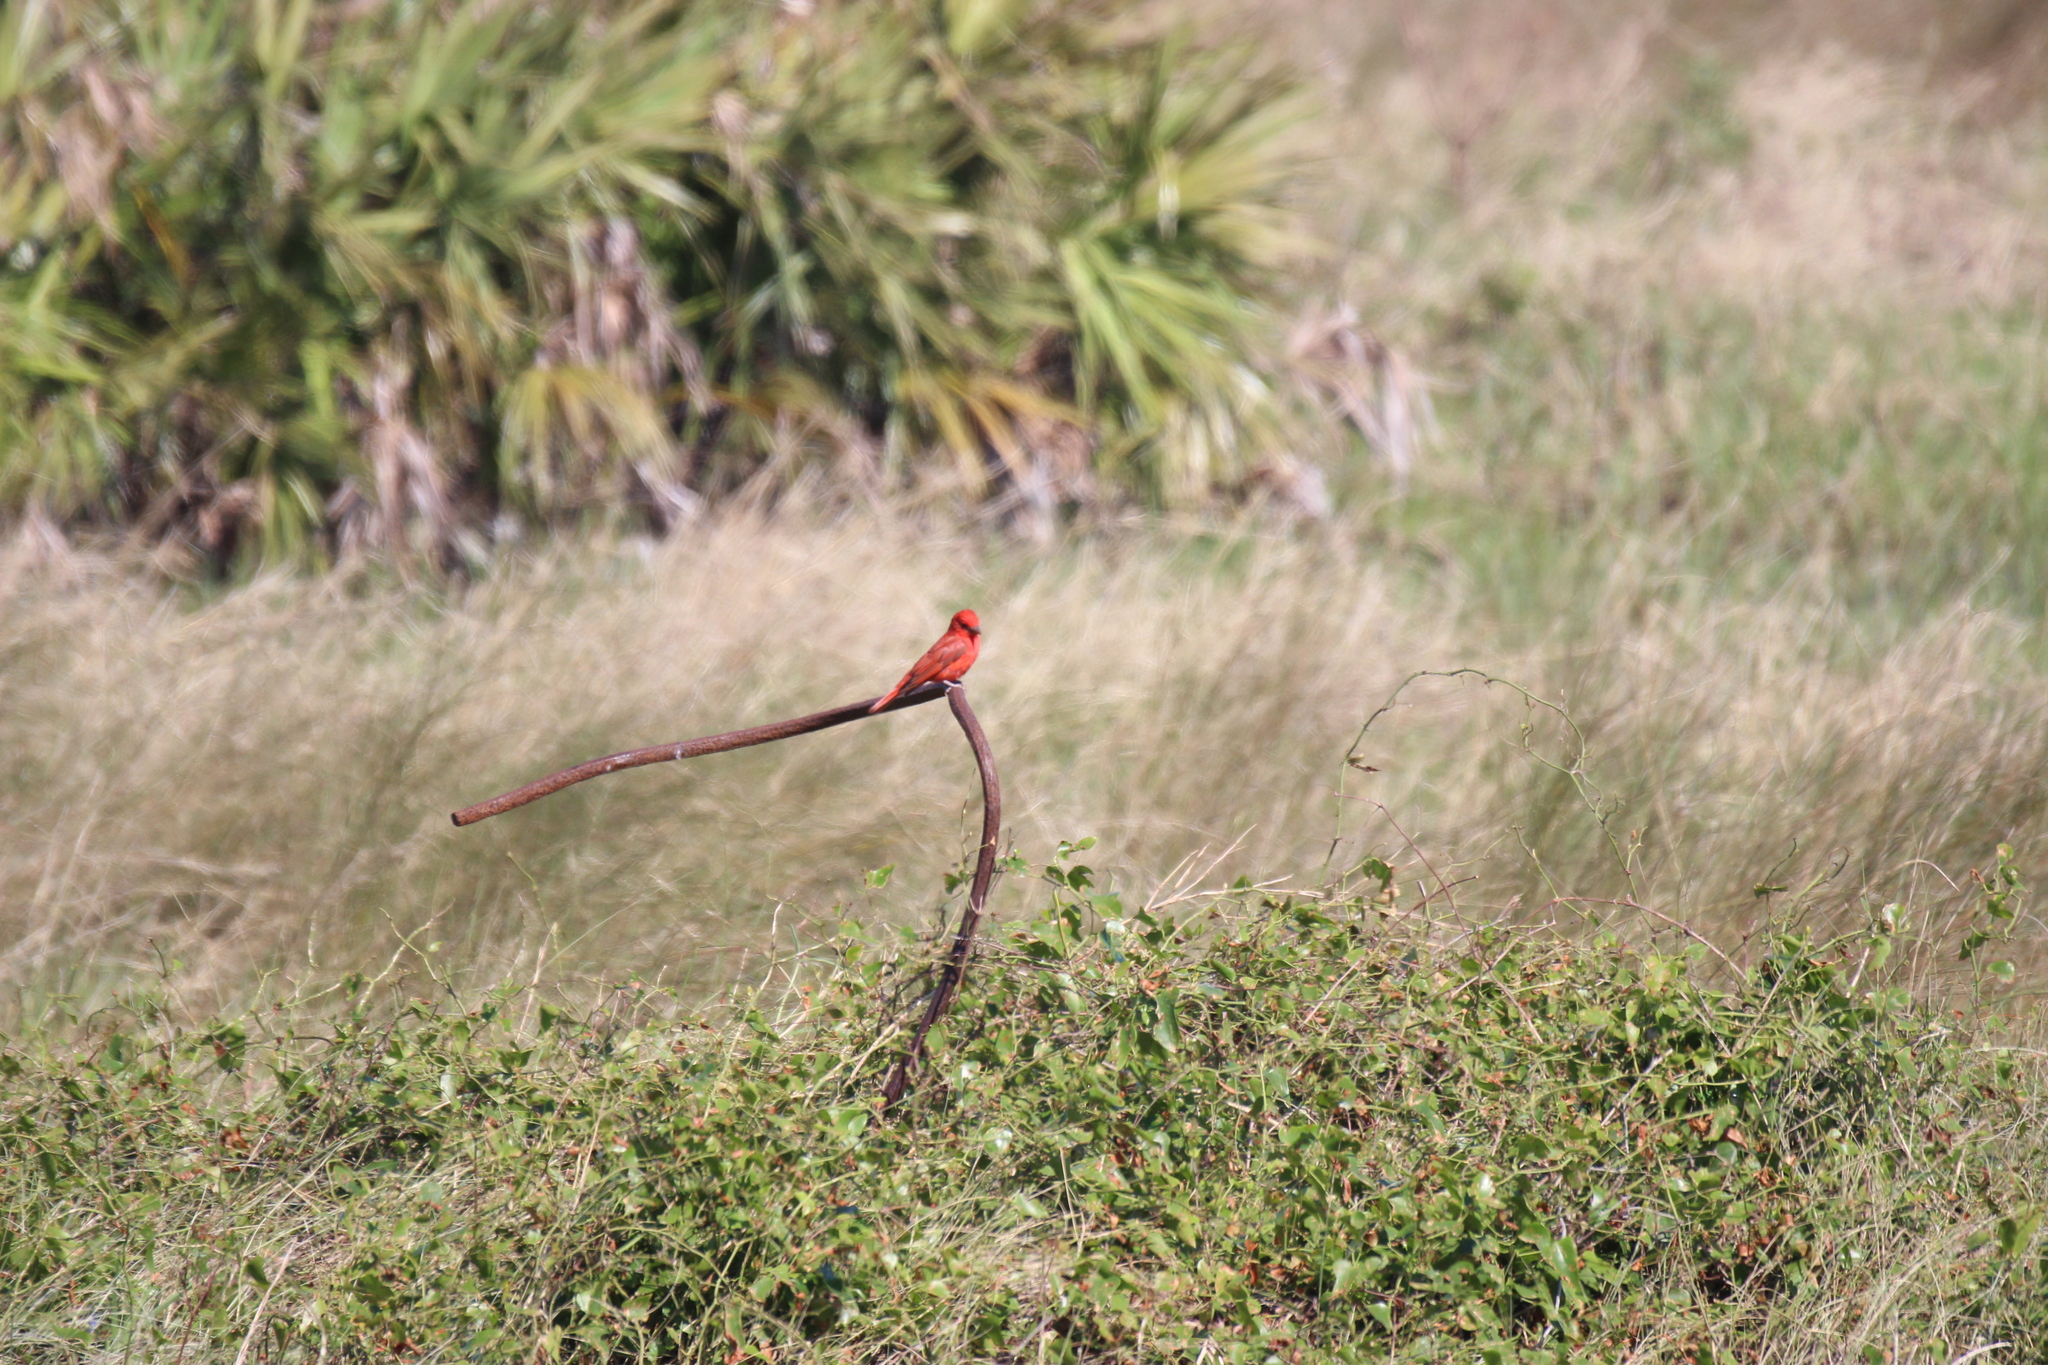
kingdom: Animalia
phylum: Chordata
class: Aves
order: Passeriformes
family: Cardinalidae
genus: Piranga
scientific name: Piranga rubra
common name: Summer tanager
